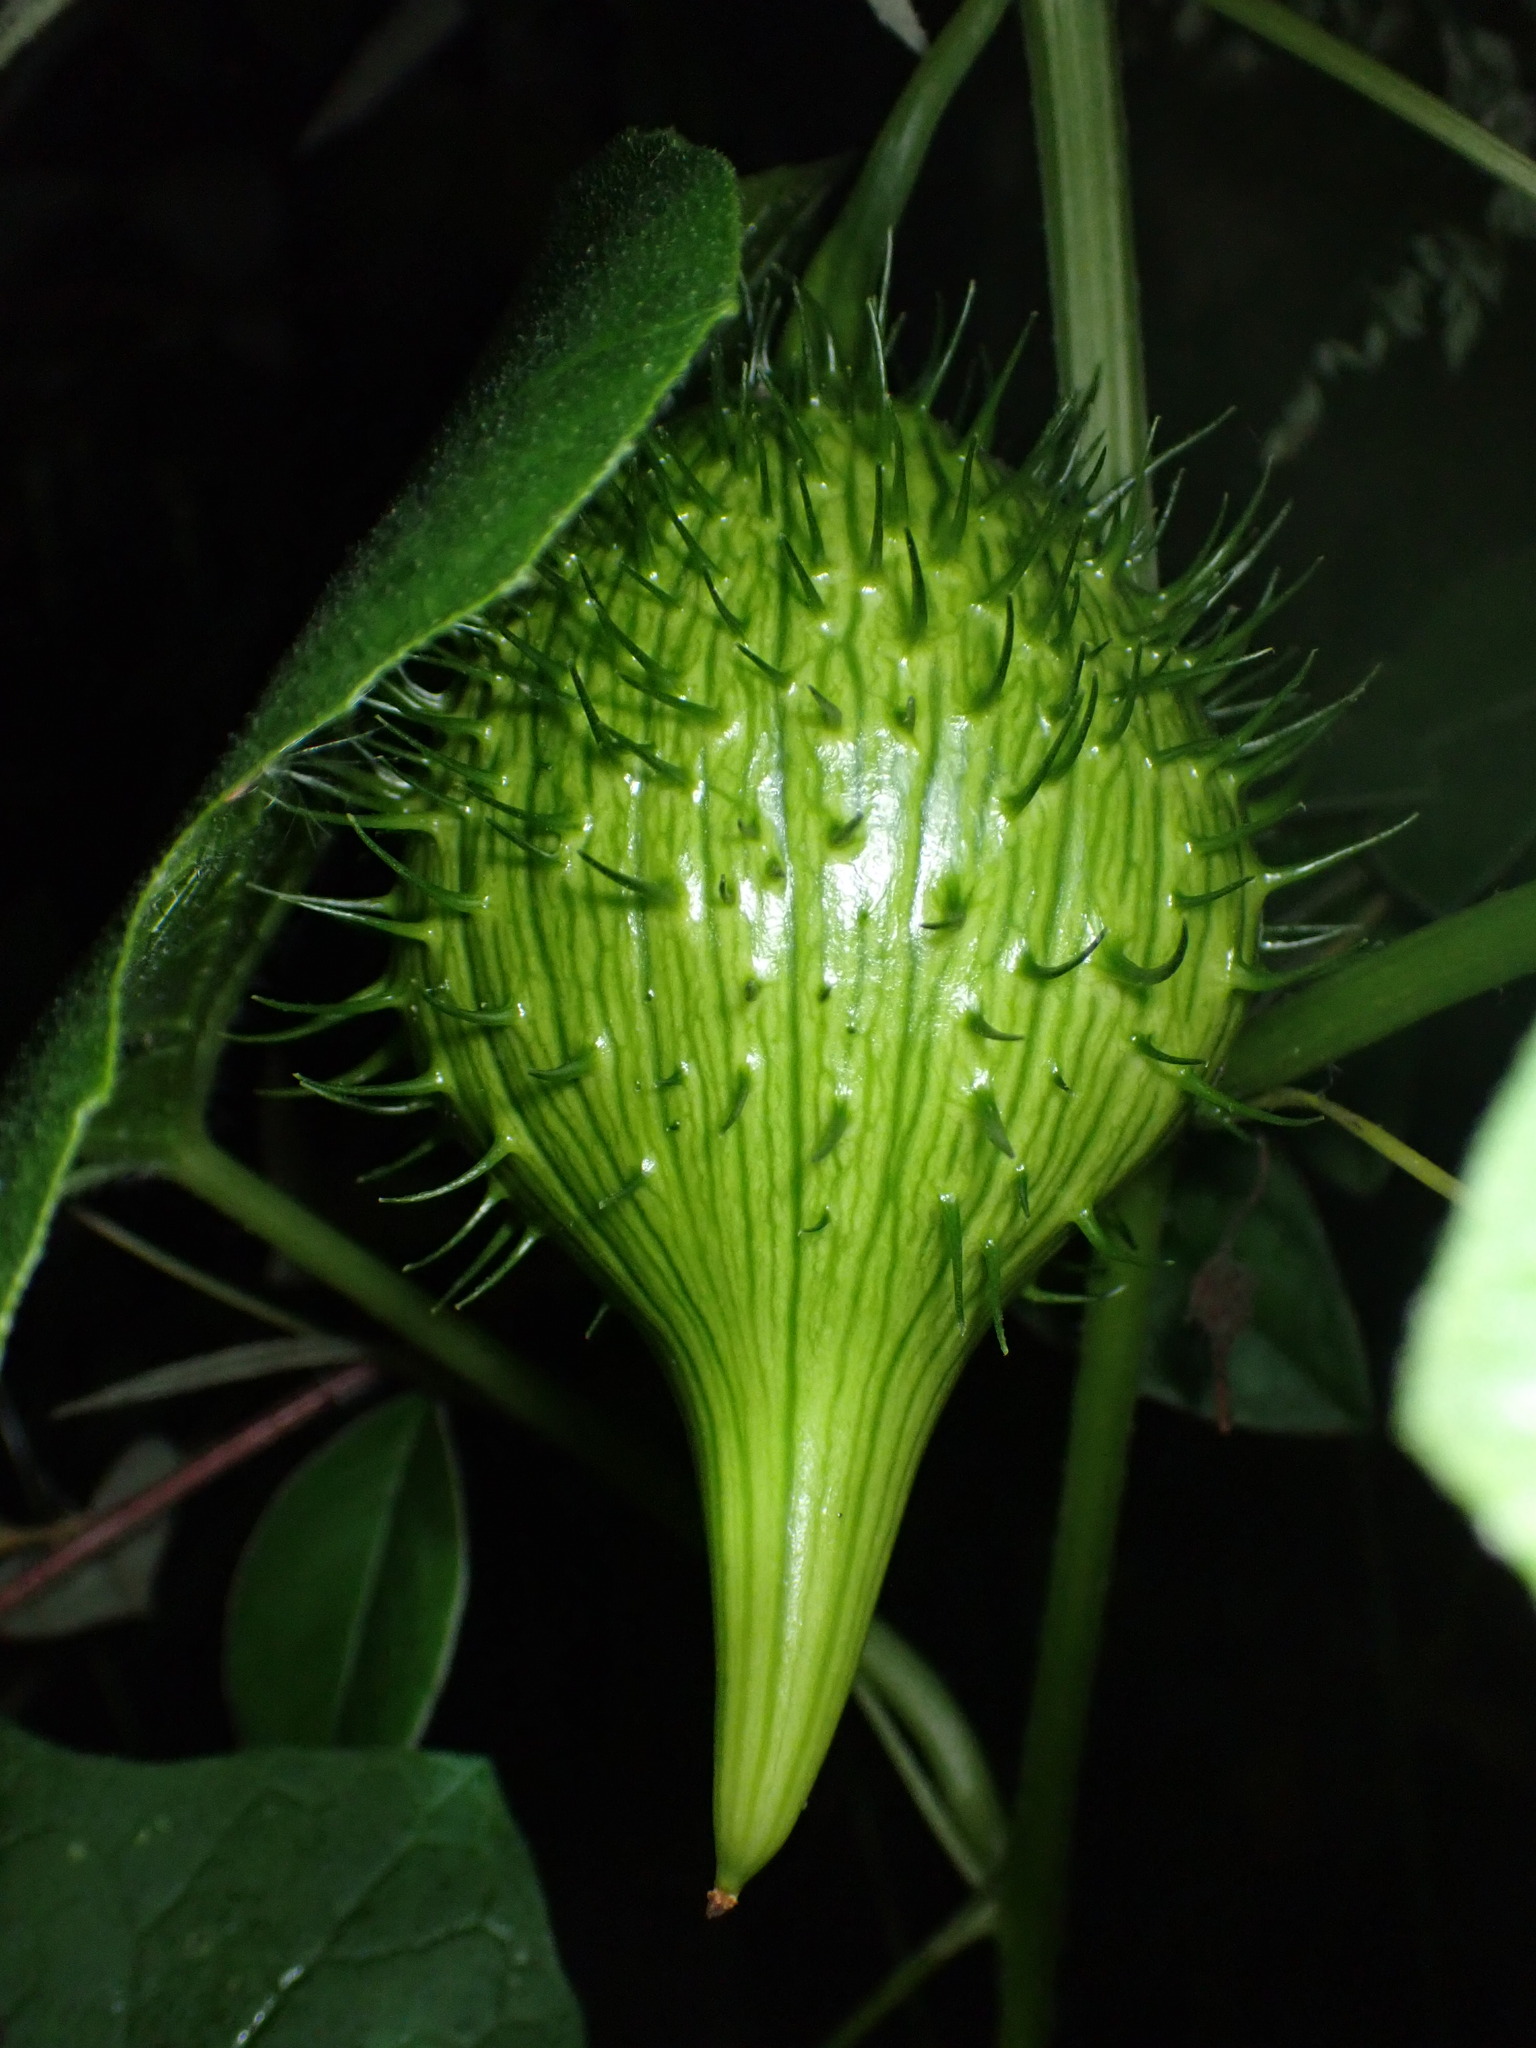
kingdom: Plantae
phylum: Tracheophyta
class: Magnoliopsida
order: Cucurbitales
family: Cucurbitaceae
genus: Marah
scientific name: Marah oregana
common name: Coastal manroot
